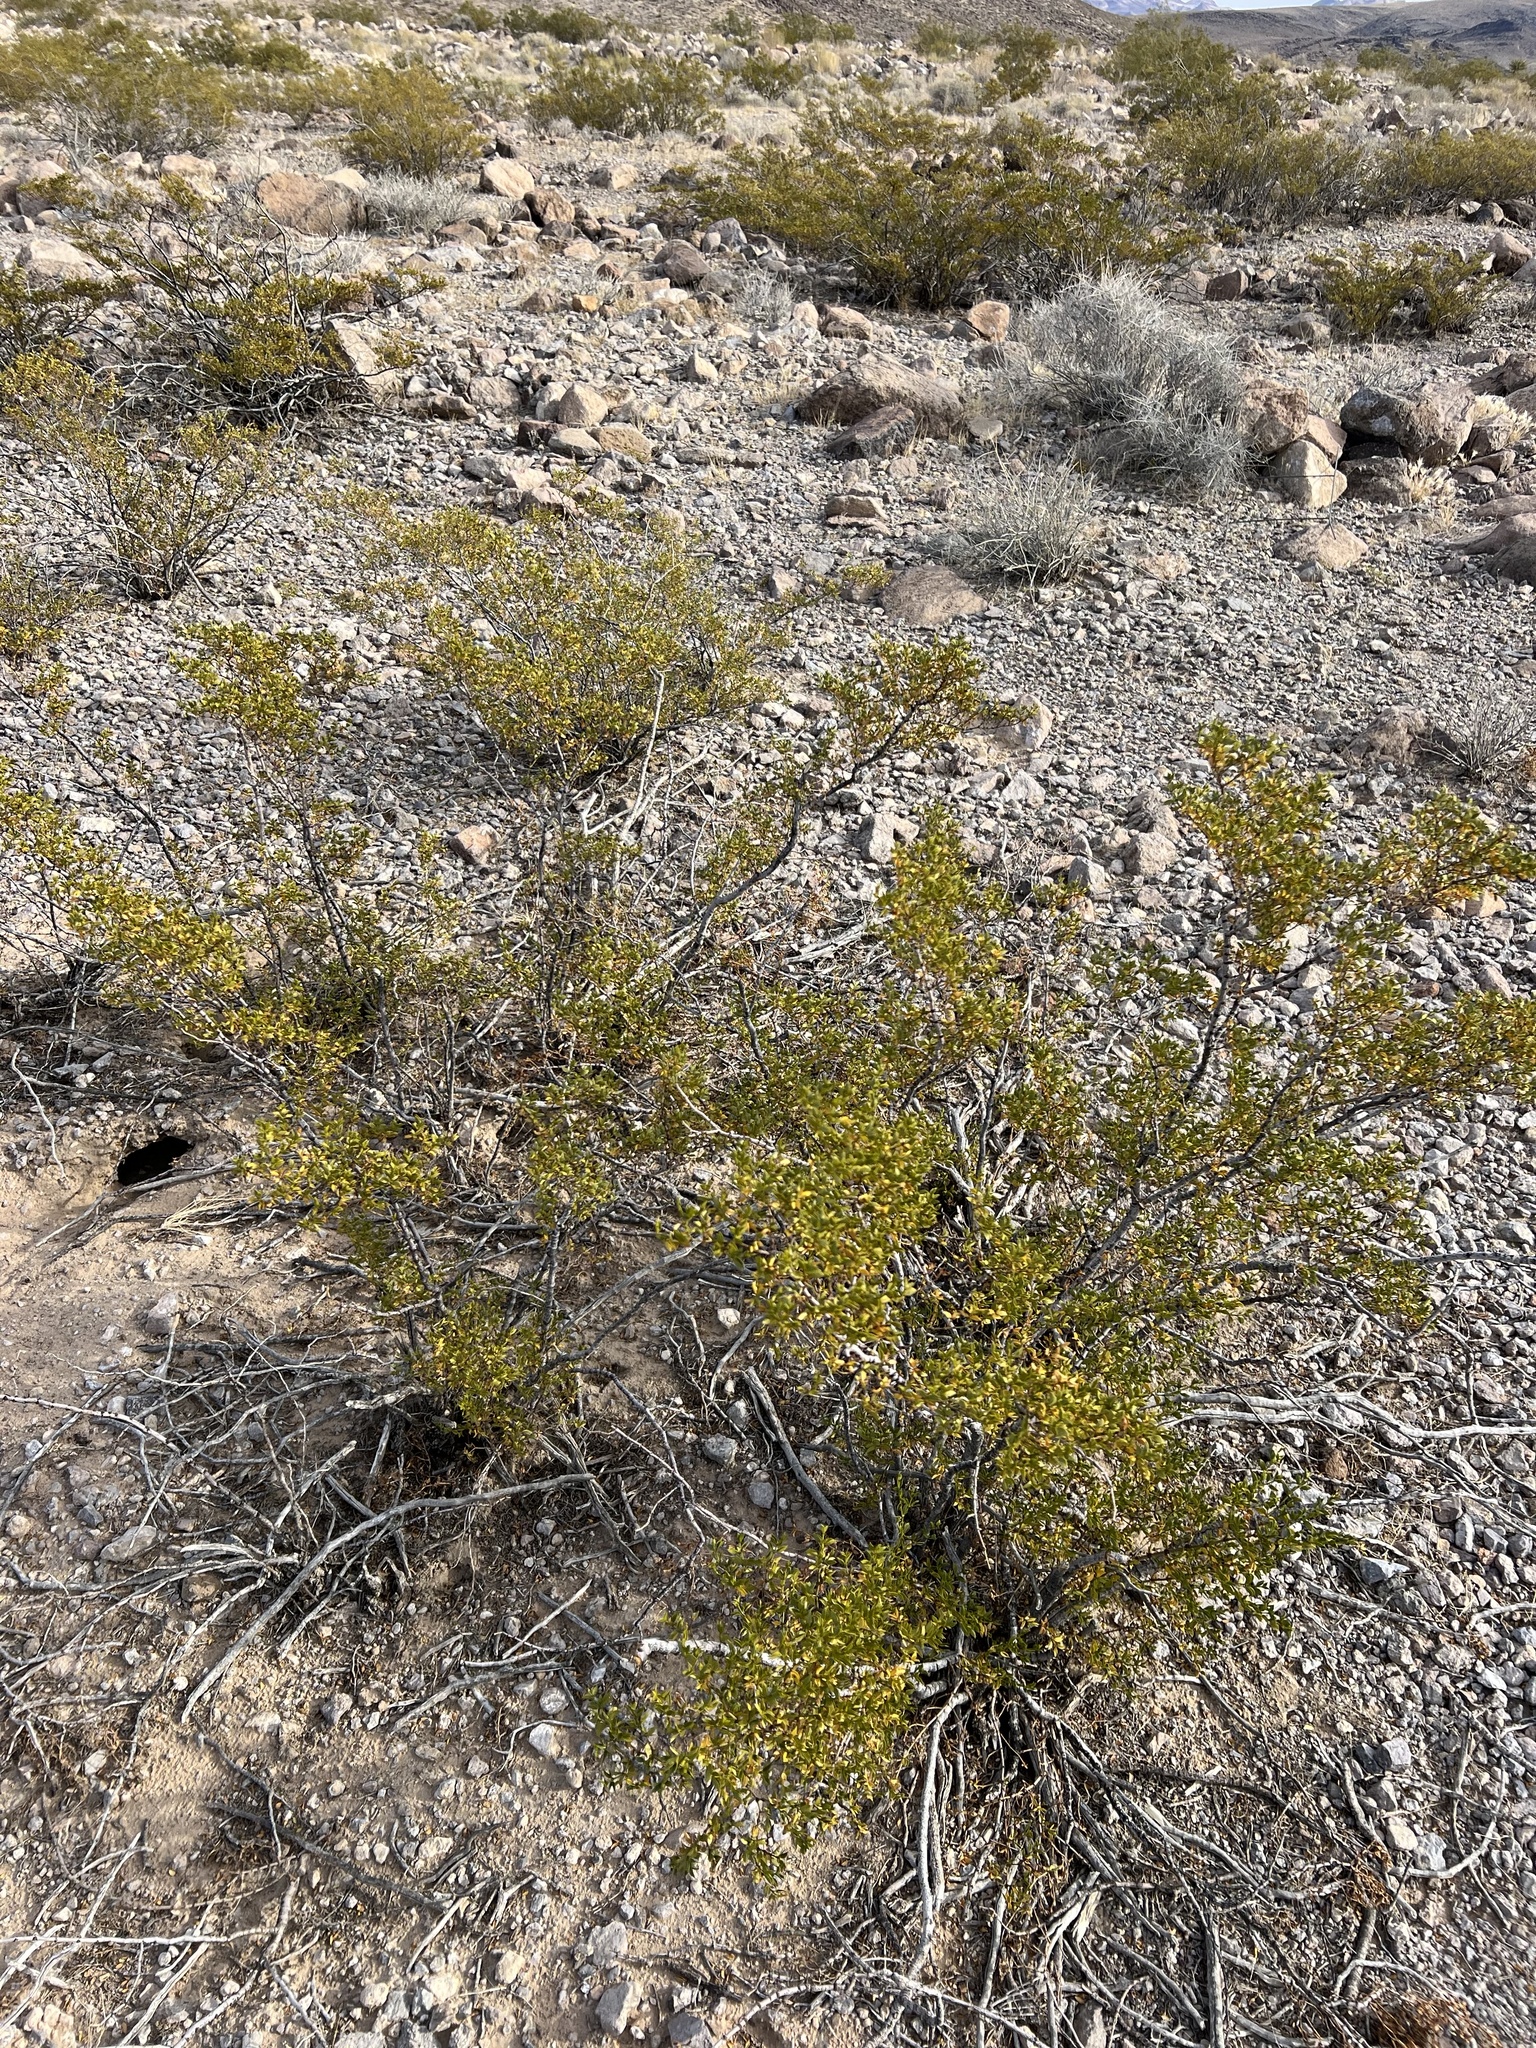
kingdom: Plantae
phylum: Tracheophyta
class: Magnoliopsida
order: Zygophyllales
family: Zygophyllaceae
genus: Larrea
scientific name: Larrea tridentata
